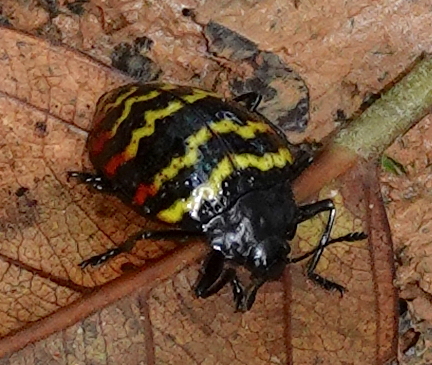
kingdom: Animalia
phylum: Arthropoda
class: Insecta
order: Coleoptera
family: Erotylidae
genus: Erotylus
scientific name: Erotylus
